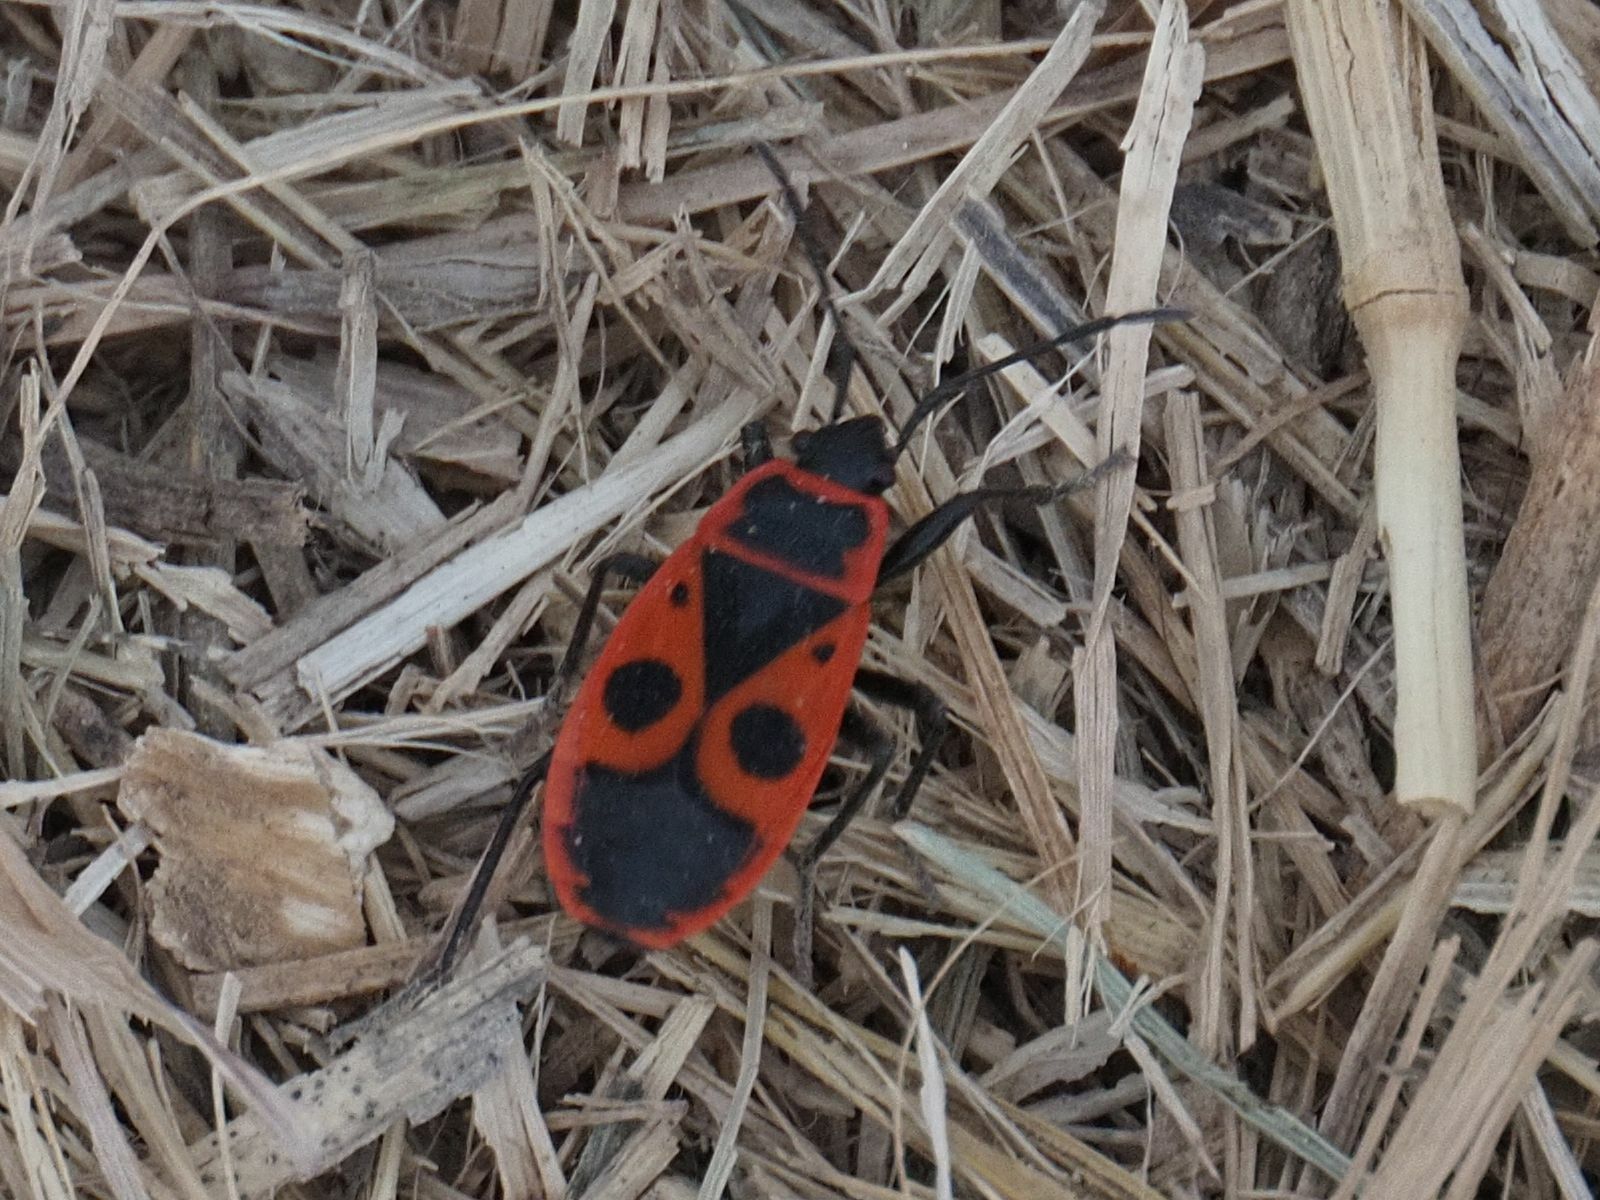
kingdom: Animalia
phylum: Arthropoda
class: Insecta
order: Hemiptera
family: Pyrrhocoridae
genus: Pyrrhocoris
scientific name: Pyrrhocoris apterus
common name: Firebug
